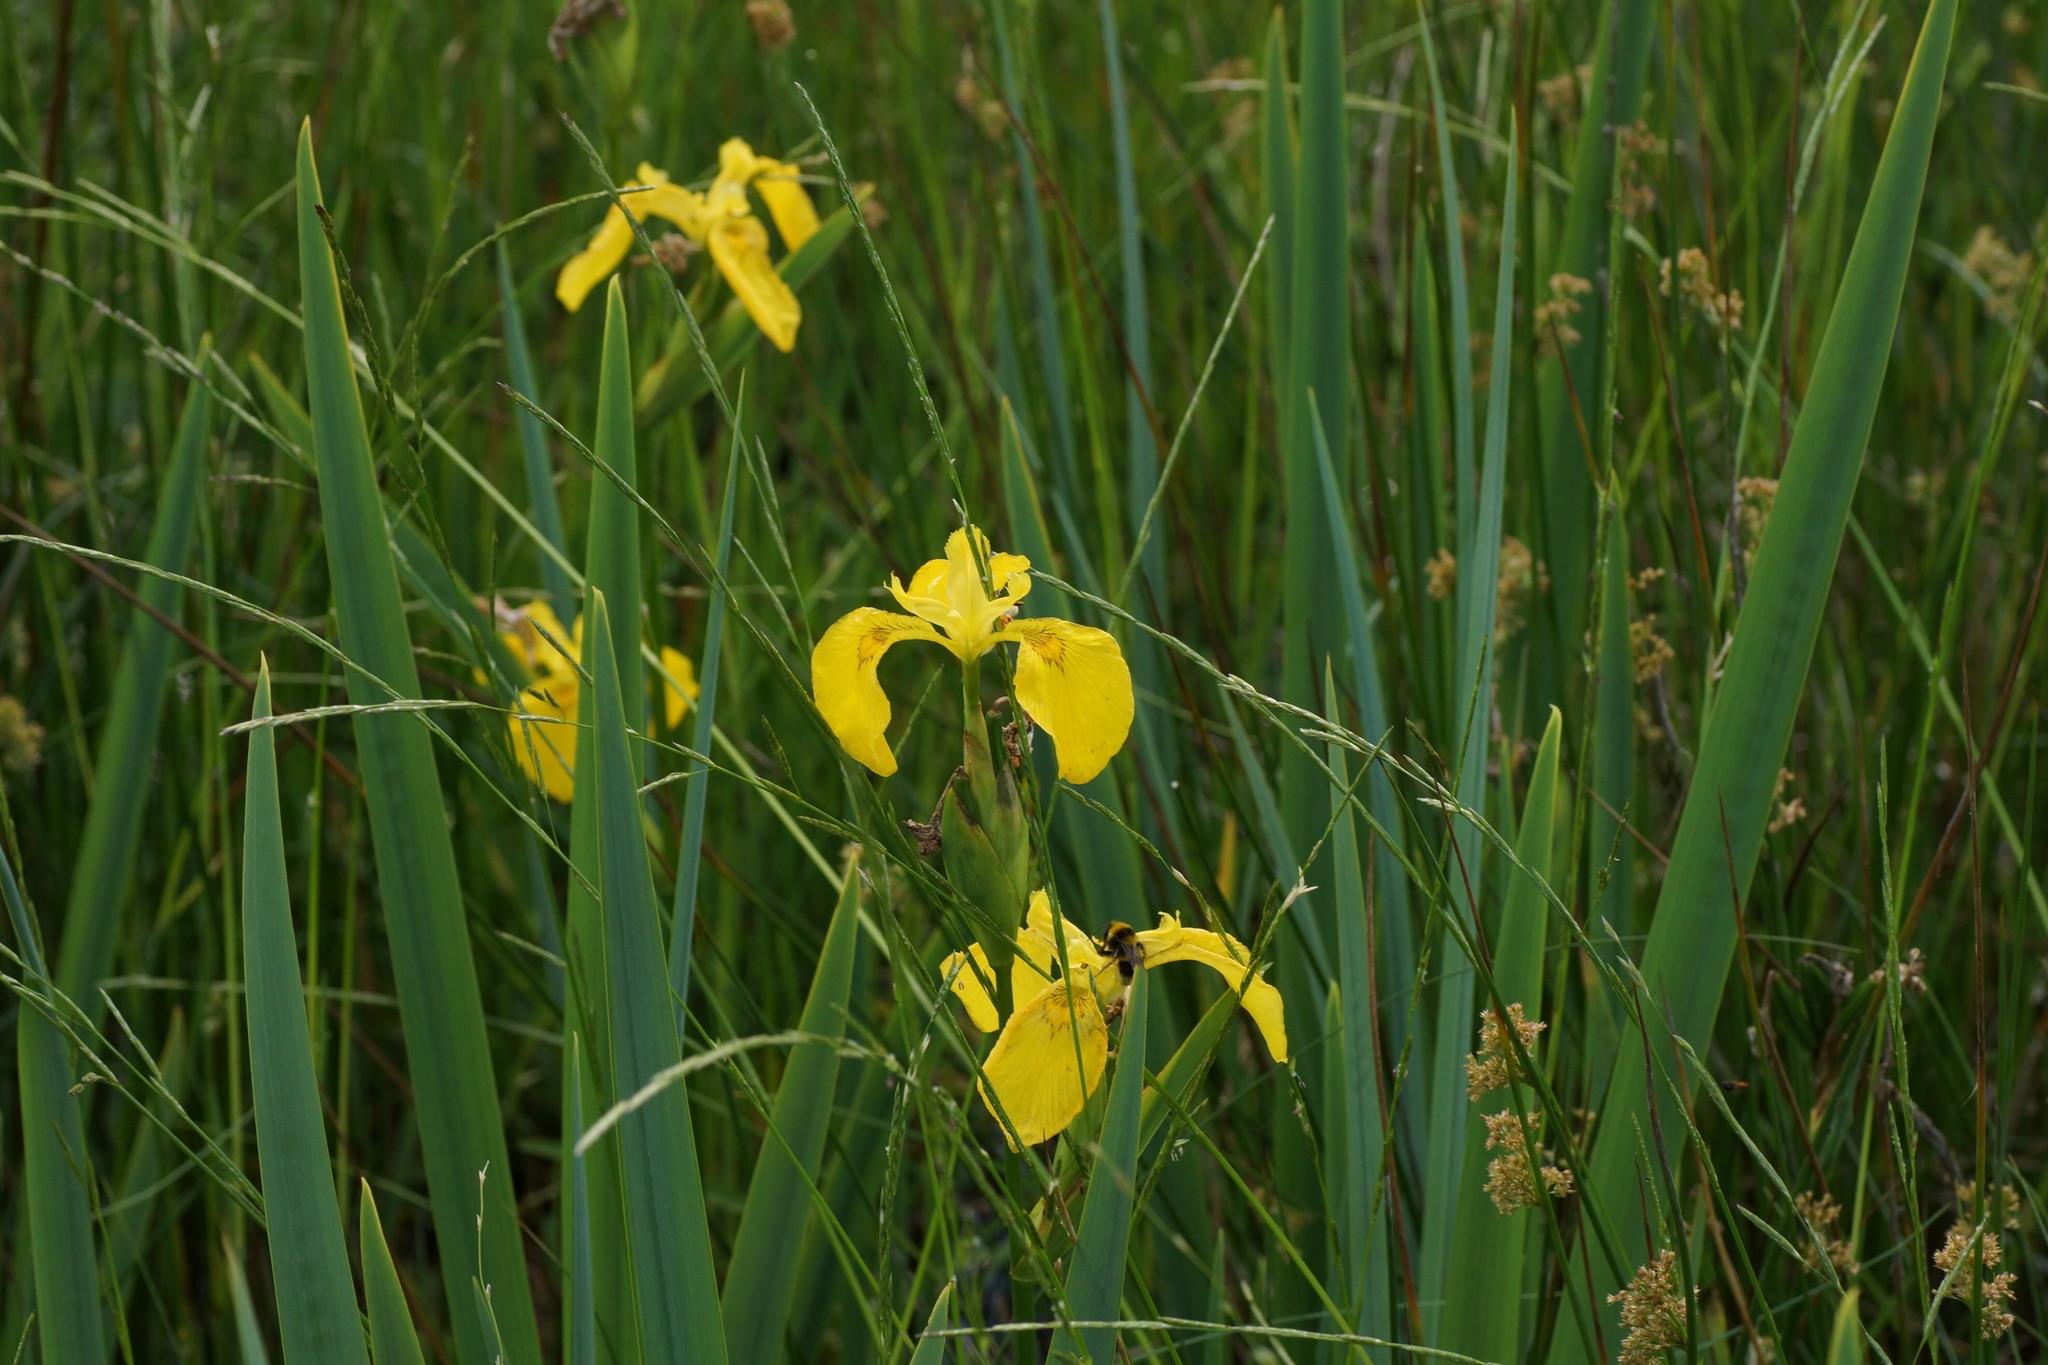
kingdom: Plantae
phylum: Tracheophyta
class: Liliopsida
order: Asparagales
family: Iridaceae
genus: Iris
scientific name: Iris pseudacorus
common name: Yellow flag
